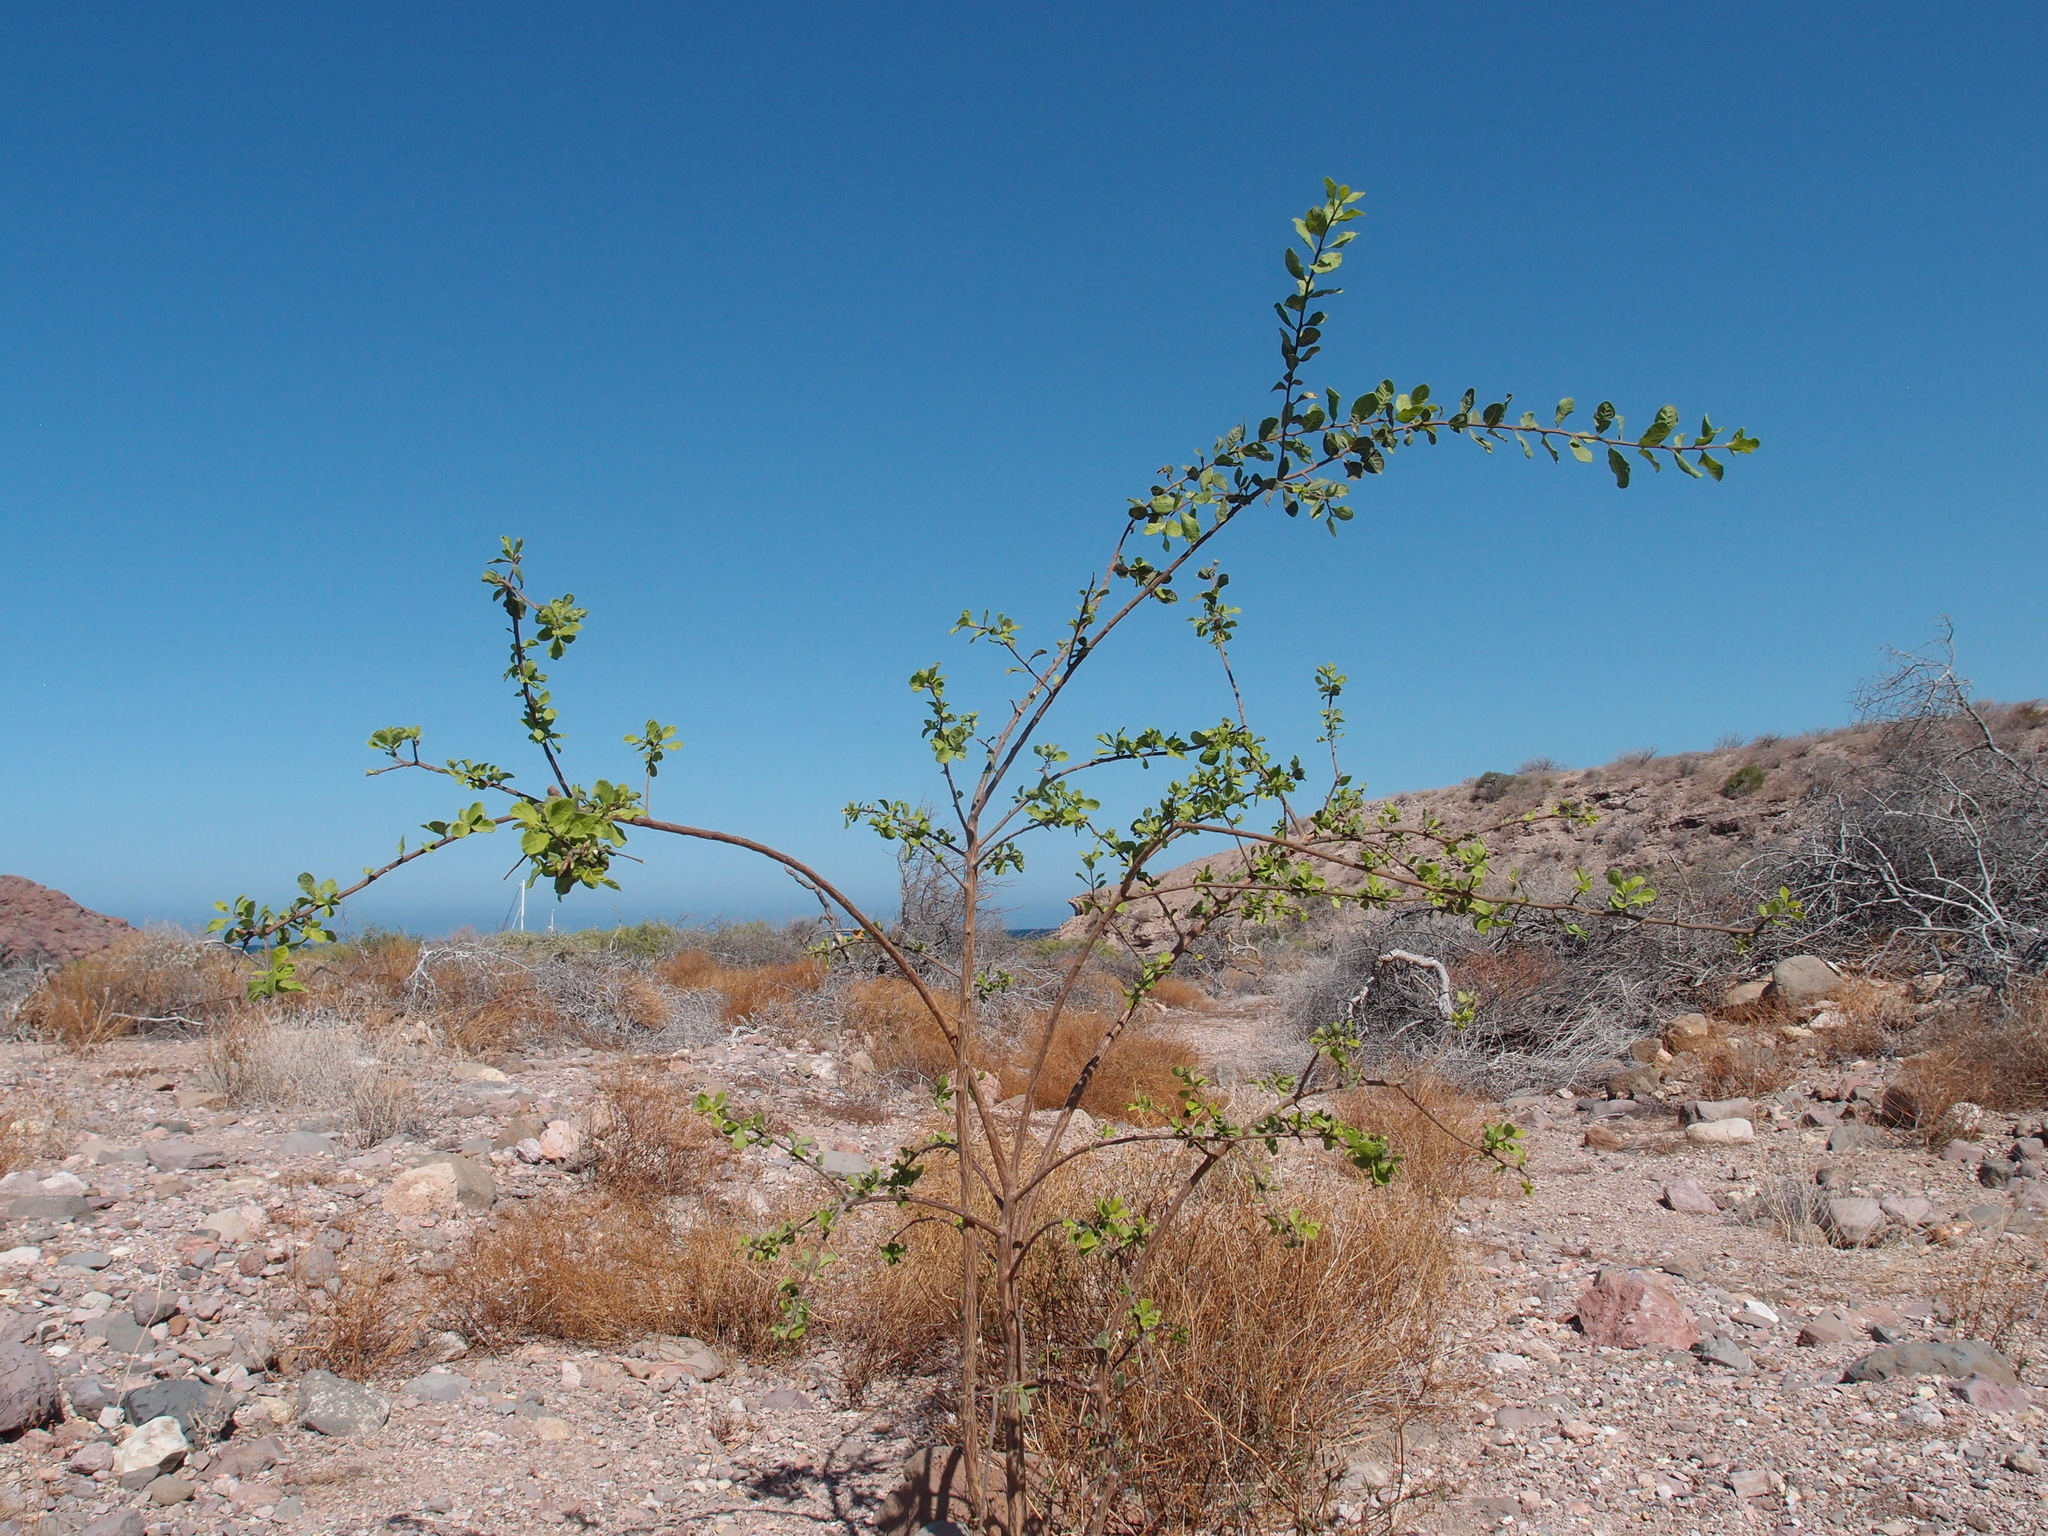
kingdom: Plantae
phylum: Tracheophyta
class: Magnoliopsida
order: Boraginales
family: Ehretiaceae
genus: Bourreria
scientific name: Bourreria sonorae
